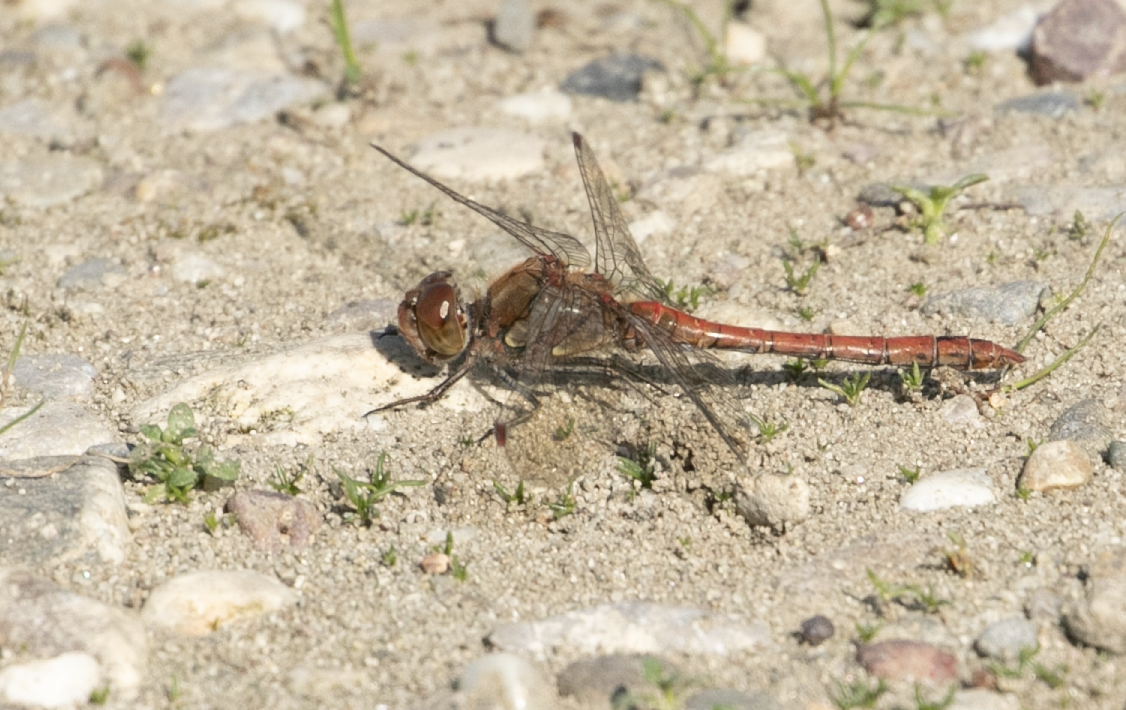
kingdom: Animalia
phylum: Arthropoda
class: Insecta
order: Odonata
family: Libellulidae
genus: Sympetrum
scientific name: Sympetrum striolatum
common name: Common darter
